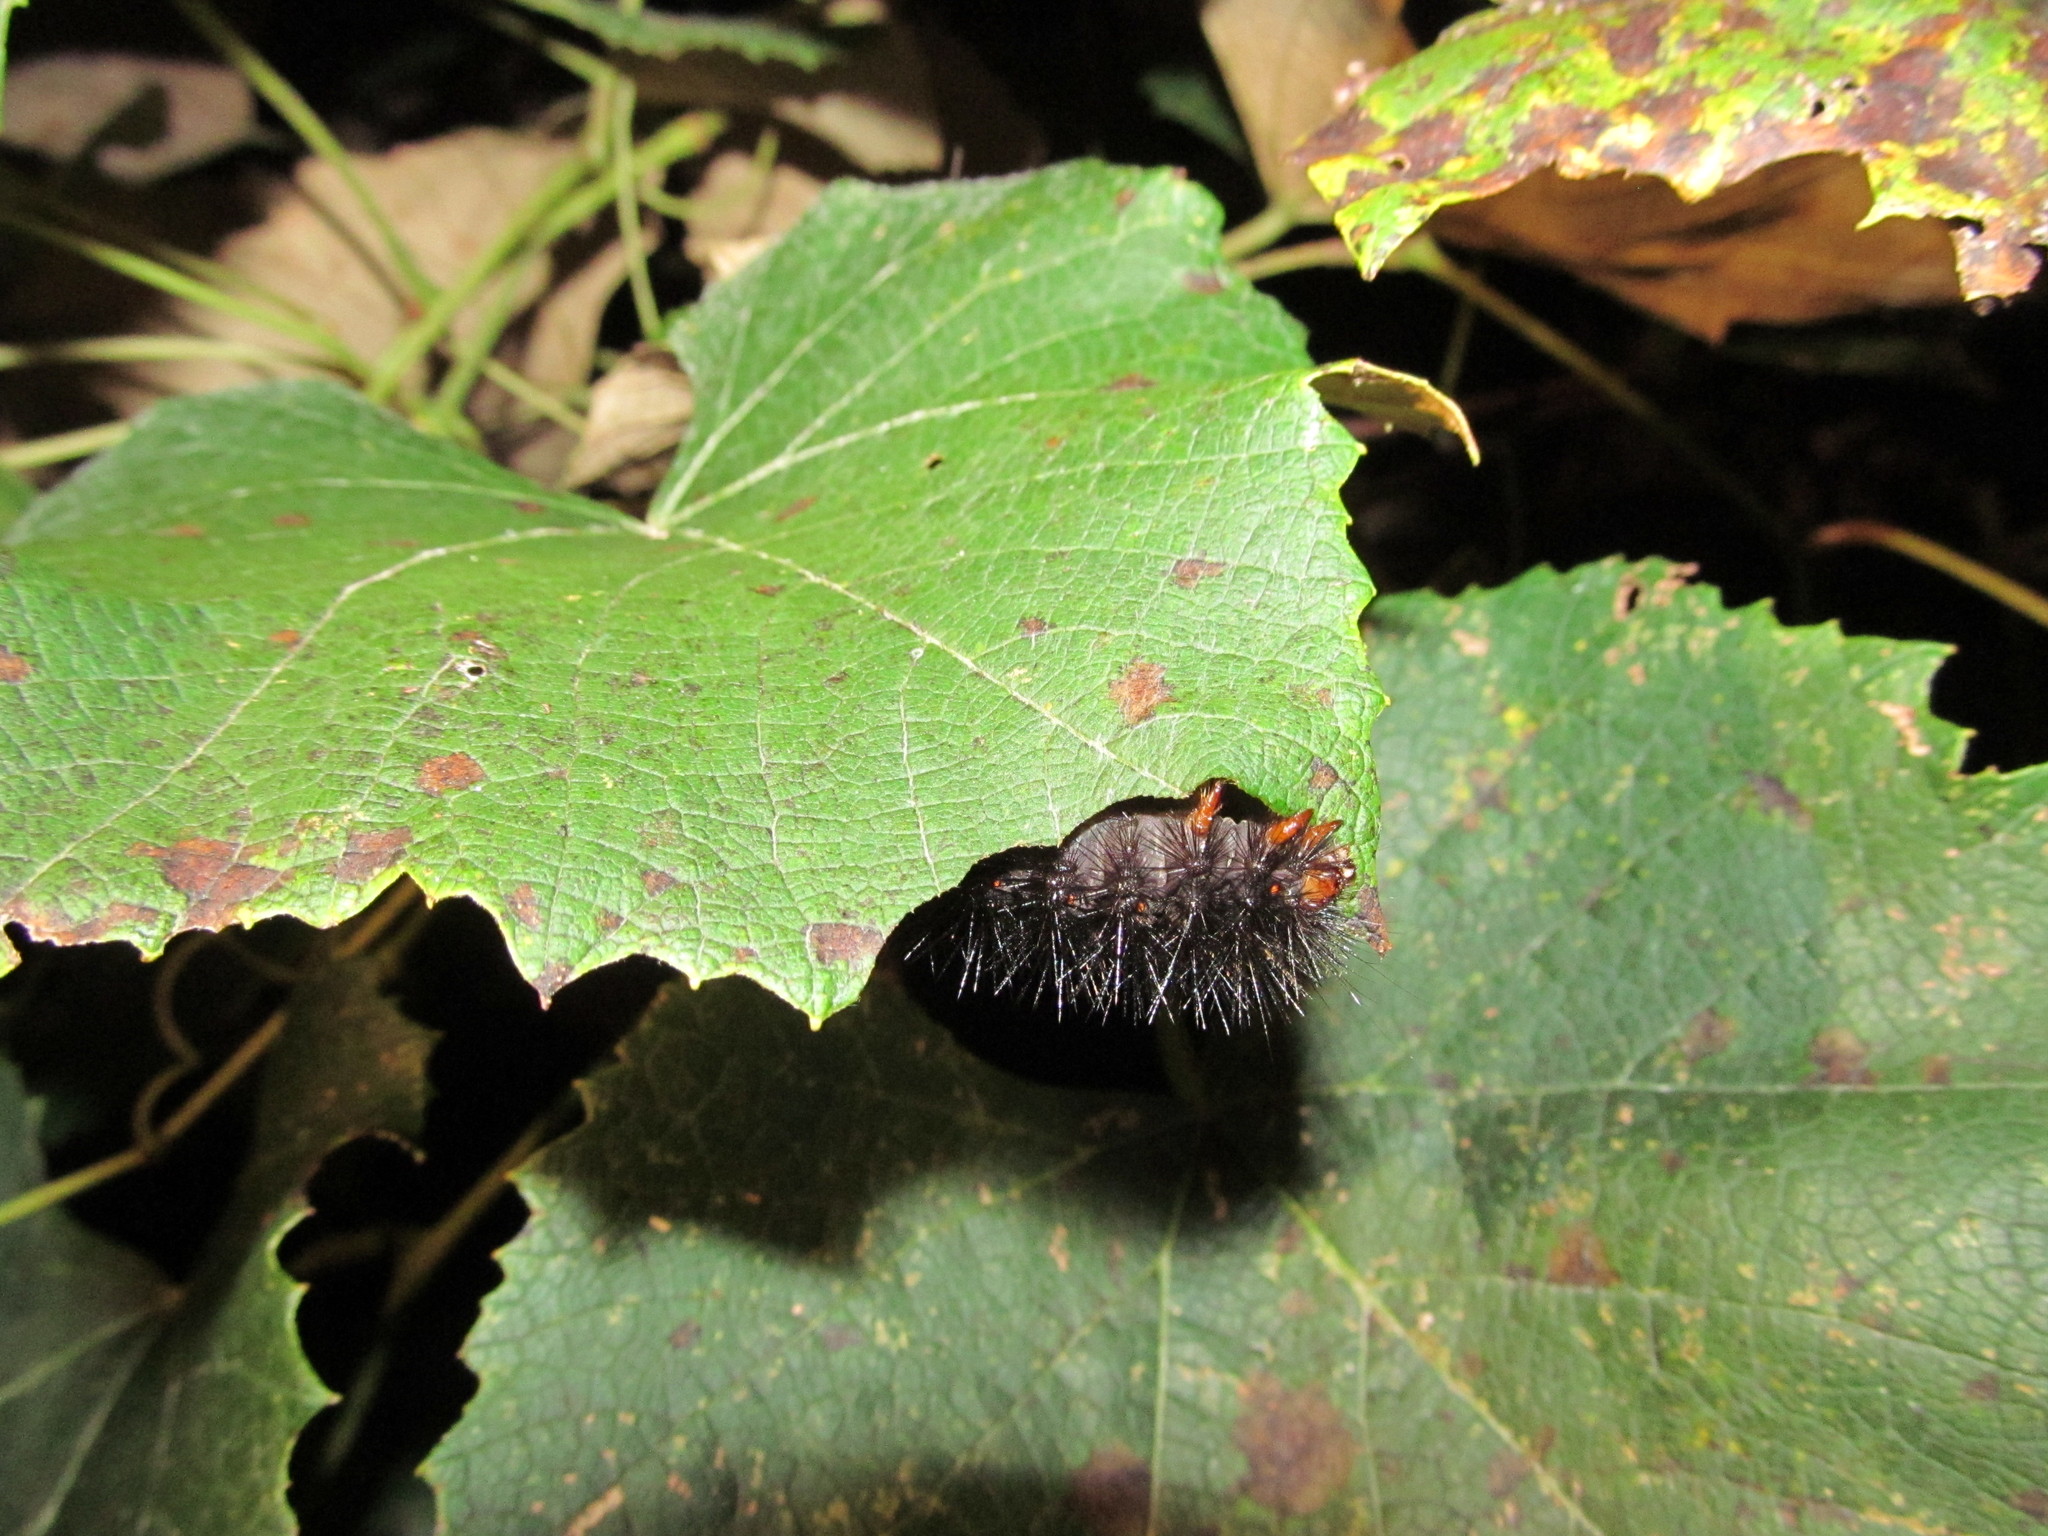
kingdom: Animalia
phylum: Arthropoda
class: Insecta
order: Lepidoptera
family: Erebidae
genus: Hypercompe
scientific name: Hypercompe scribonia
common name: Giant leopard moth
